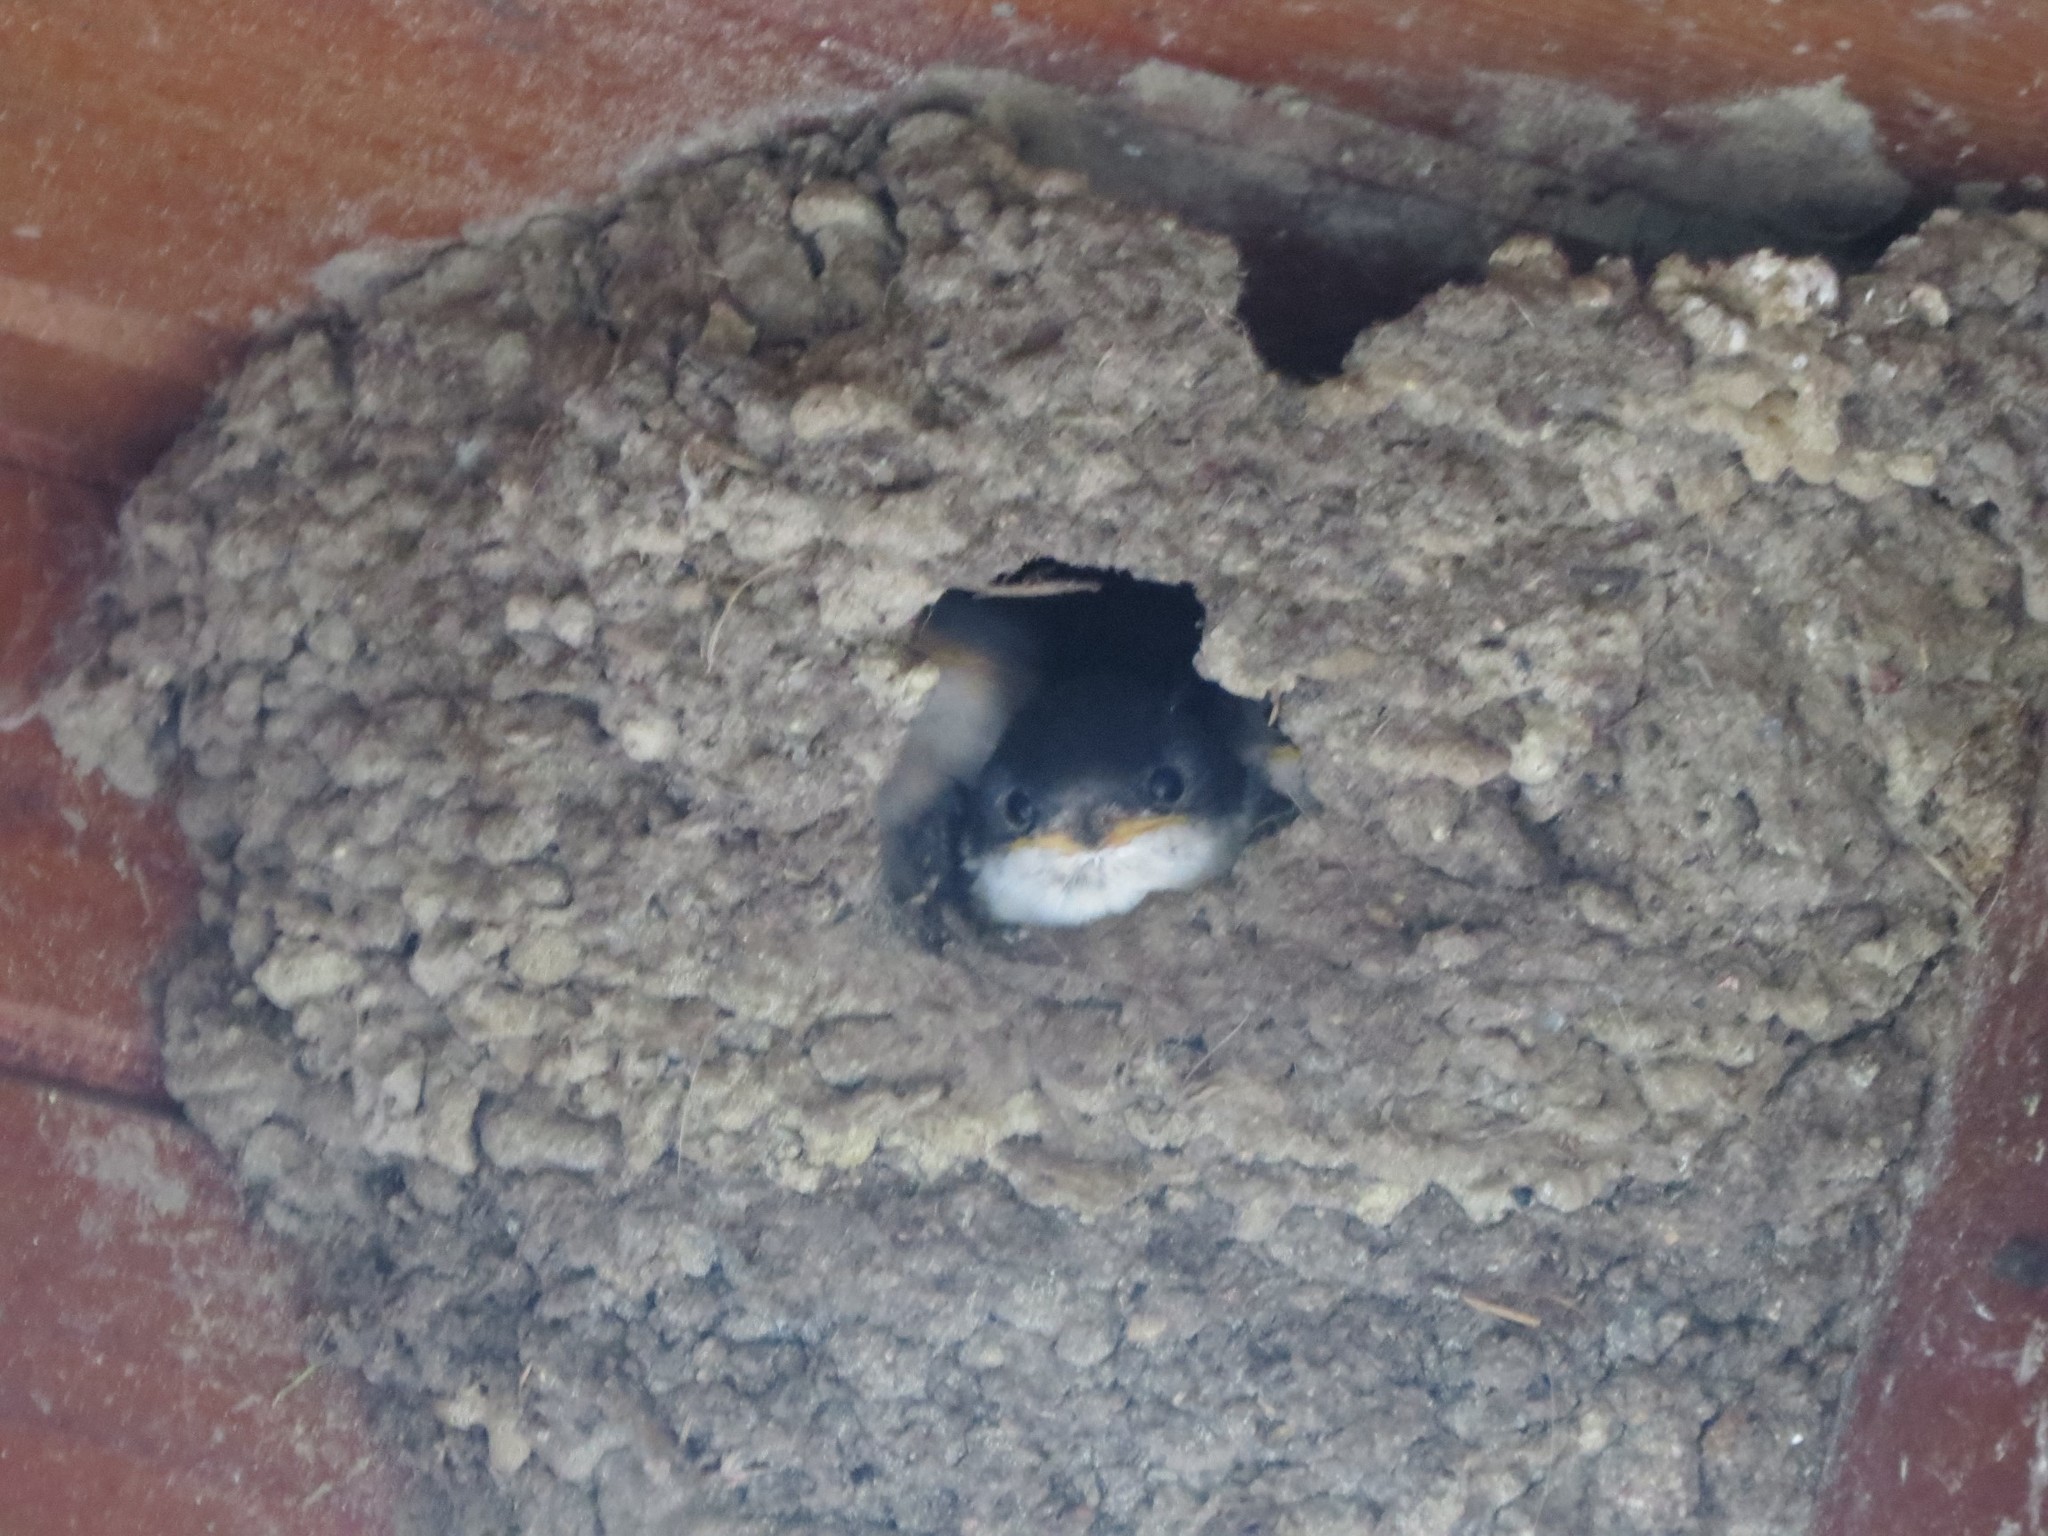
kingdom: Animalia
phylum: Chordata
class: Aves
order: Passeriformes
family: Hirundinidae
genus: Delichon
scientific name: Delichon urbicum
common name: Common house martin
